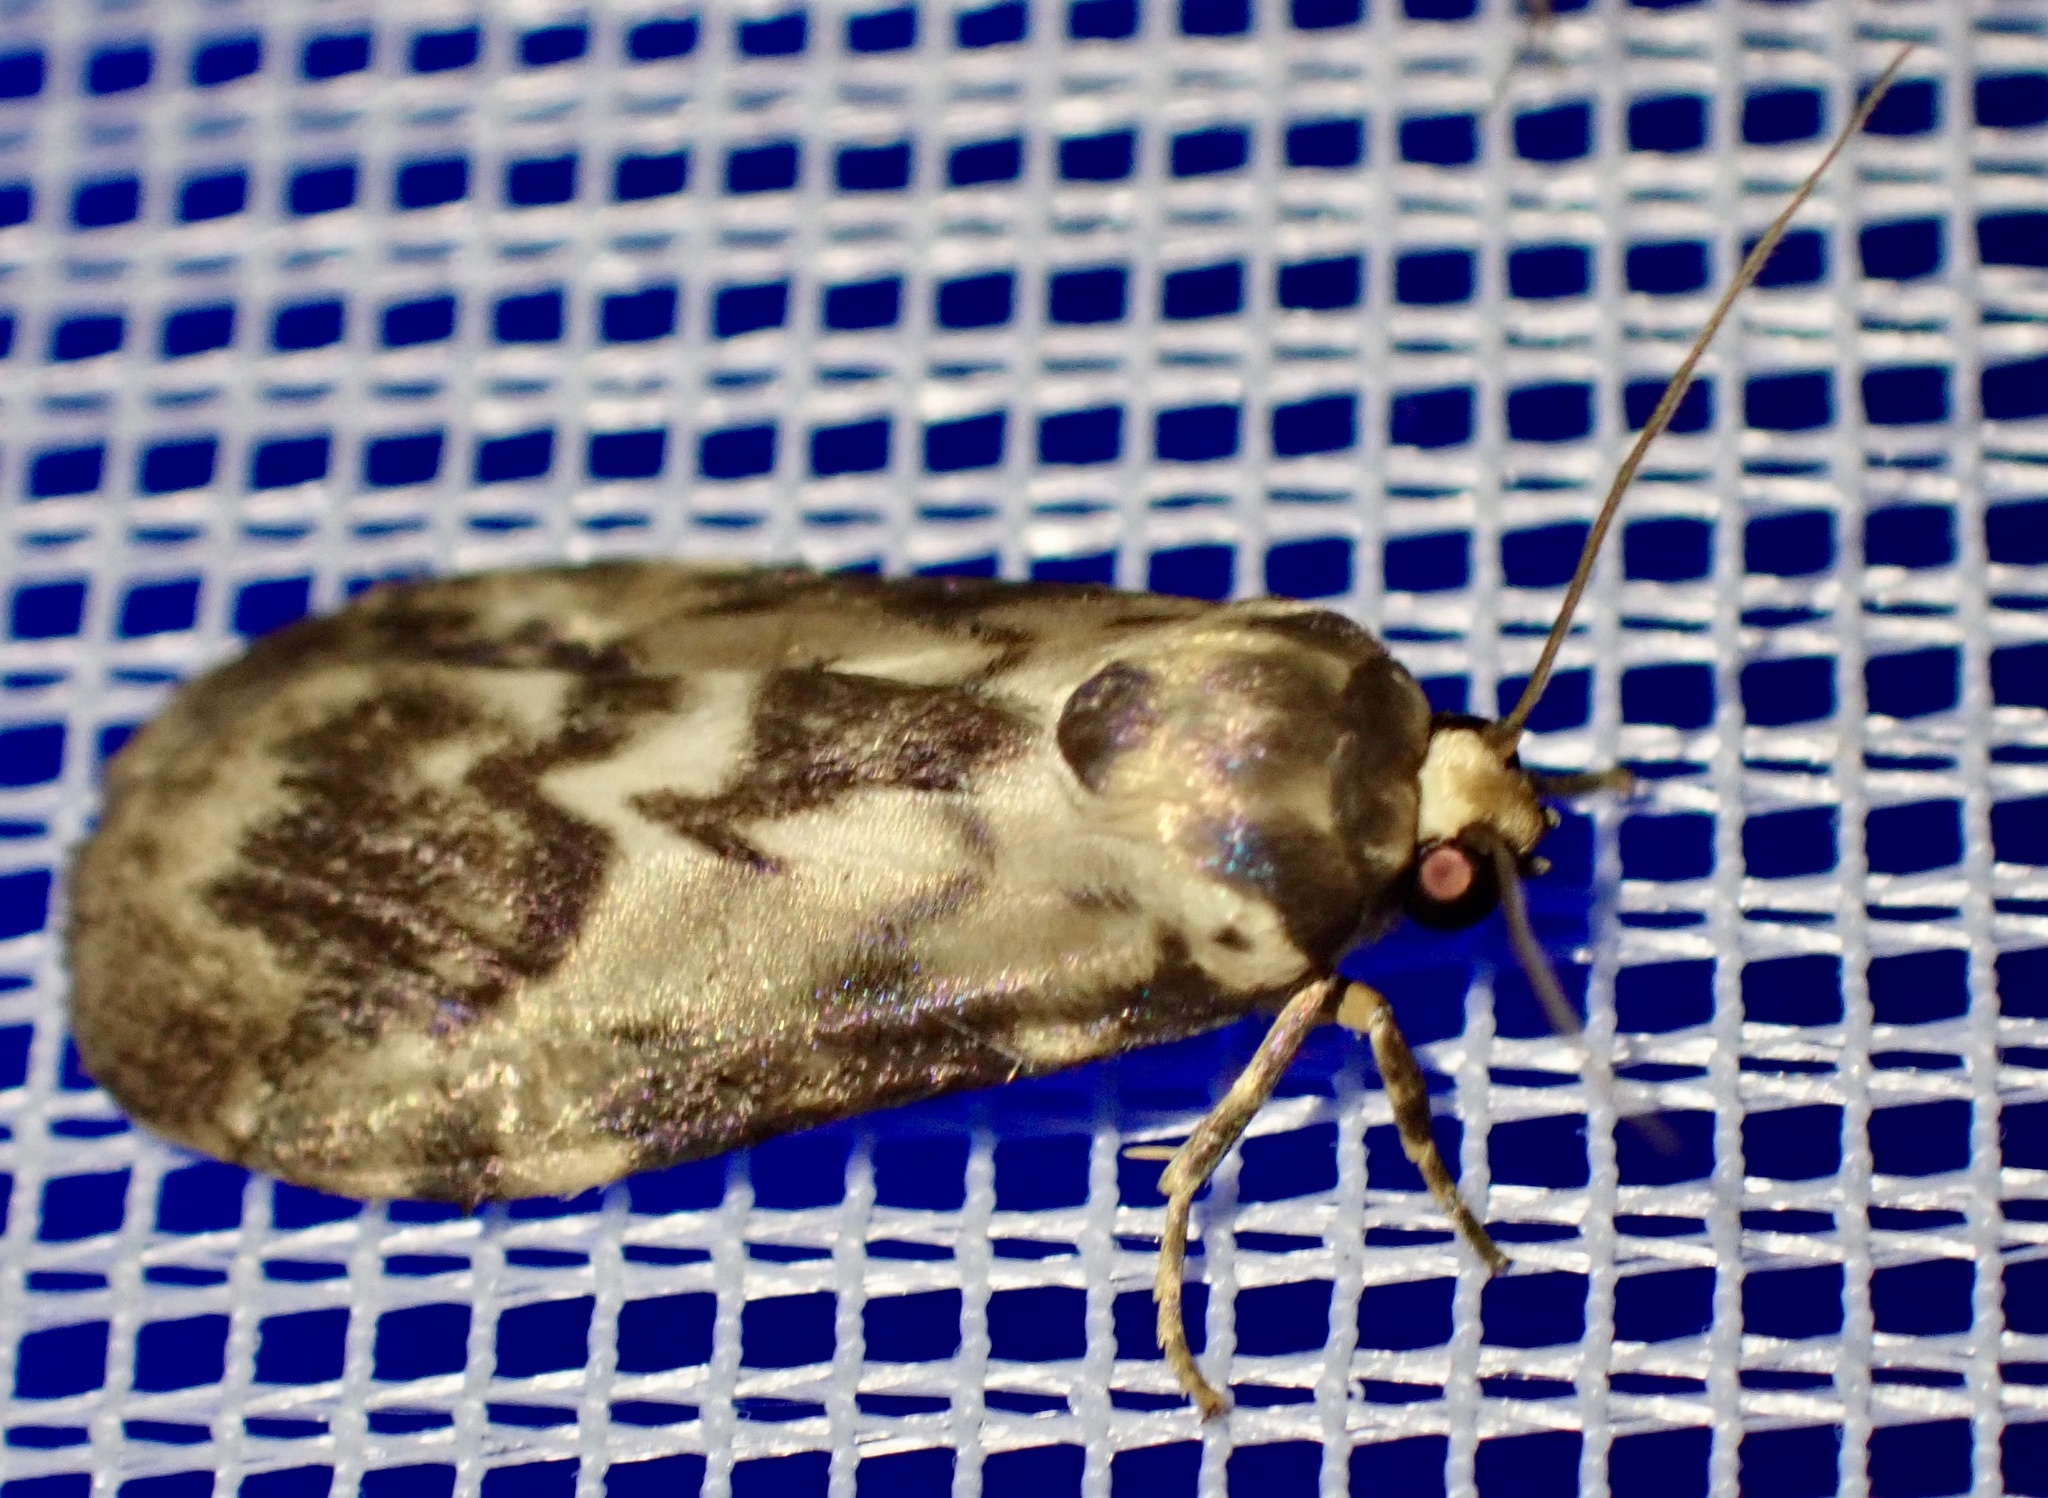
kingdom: Animalia
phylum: Arthropoda
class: Insecta
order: Lepidoptera
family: Erebidae
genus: Cyana
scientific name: Cyana inusitata
